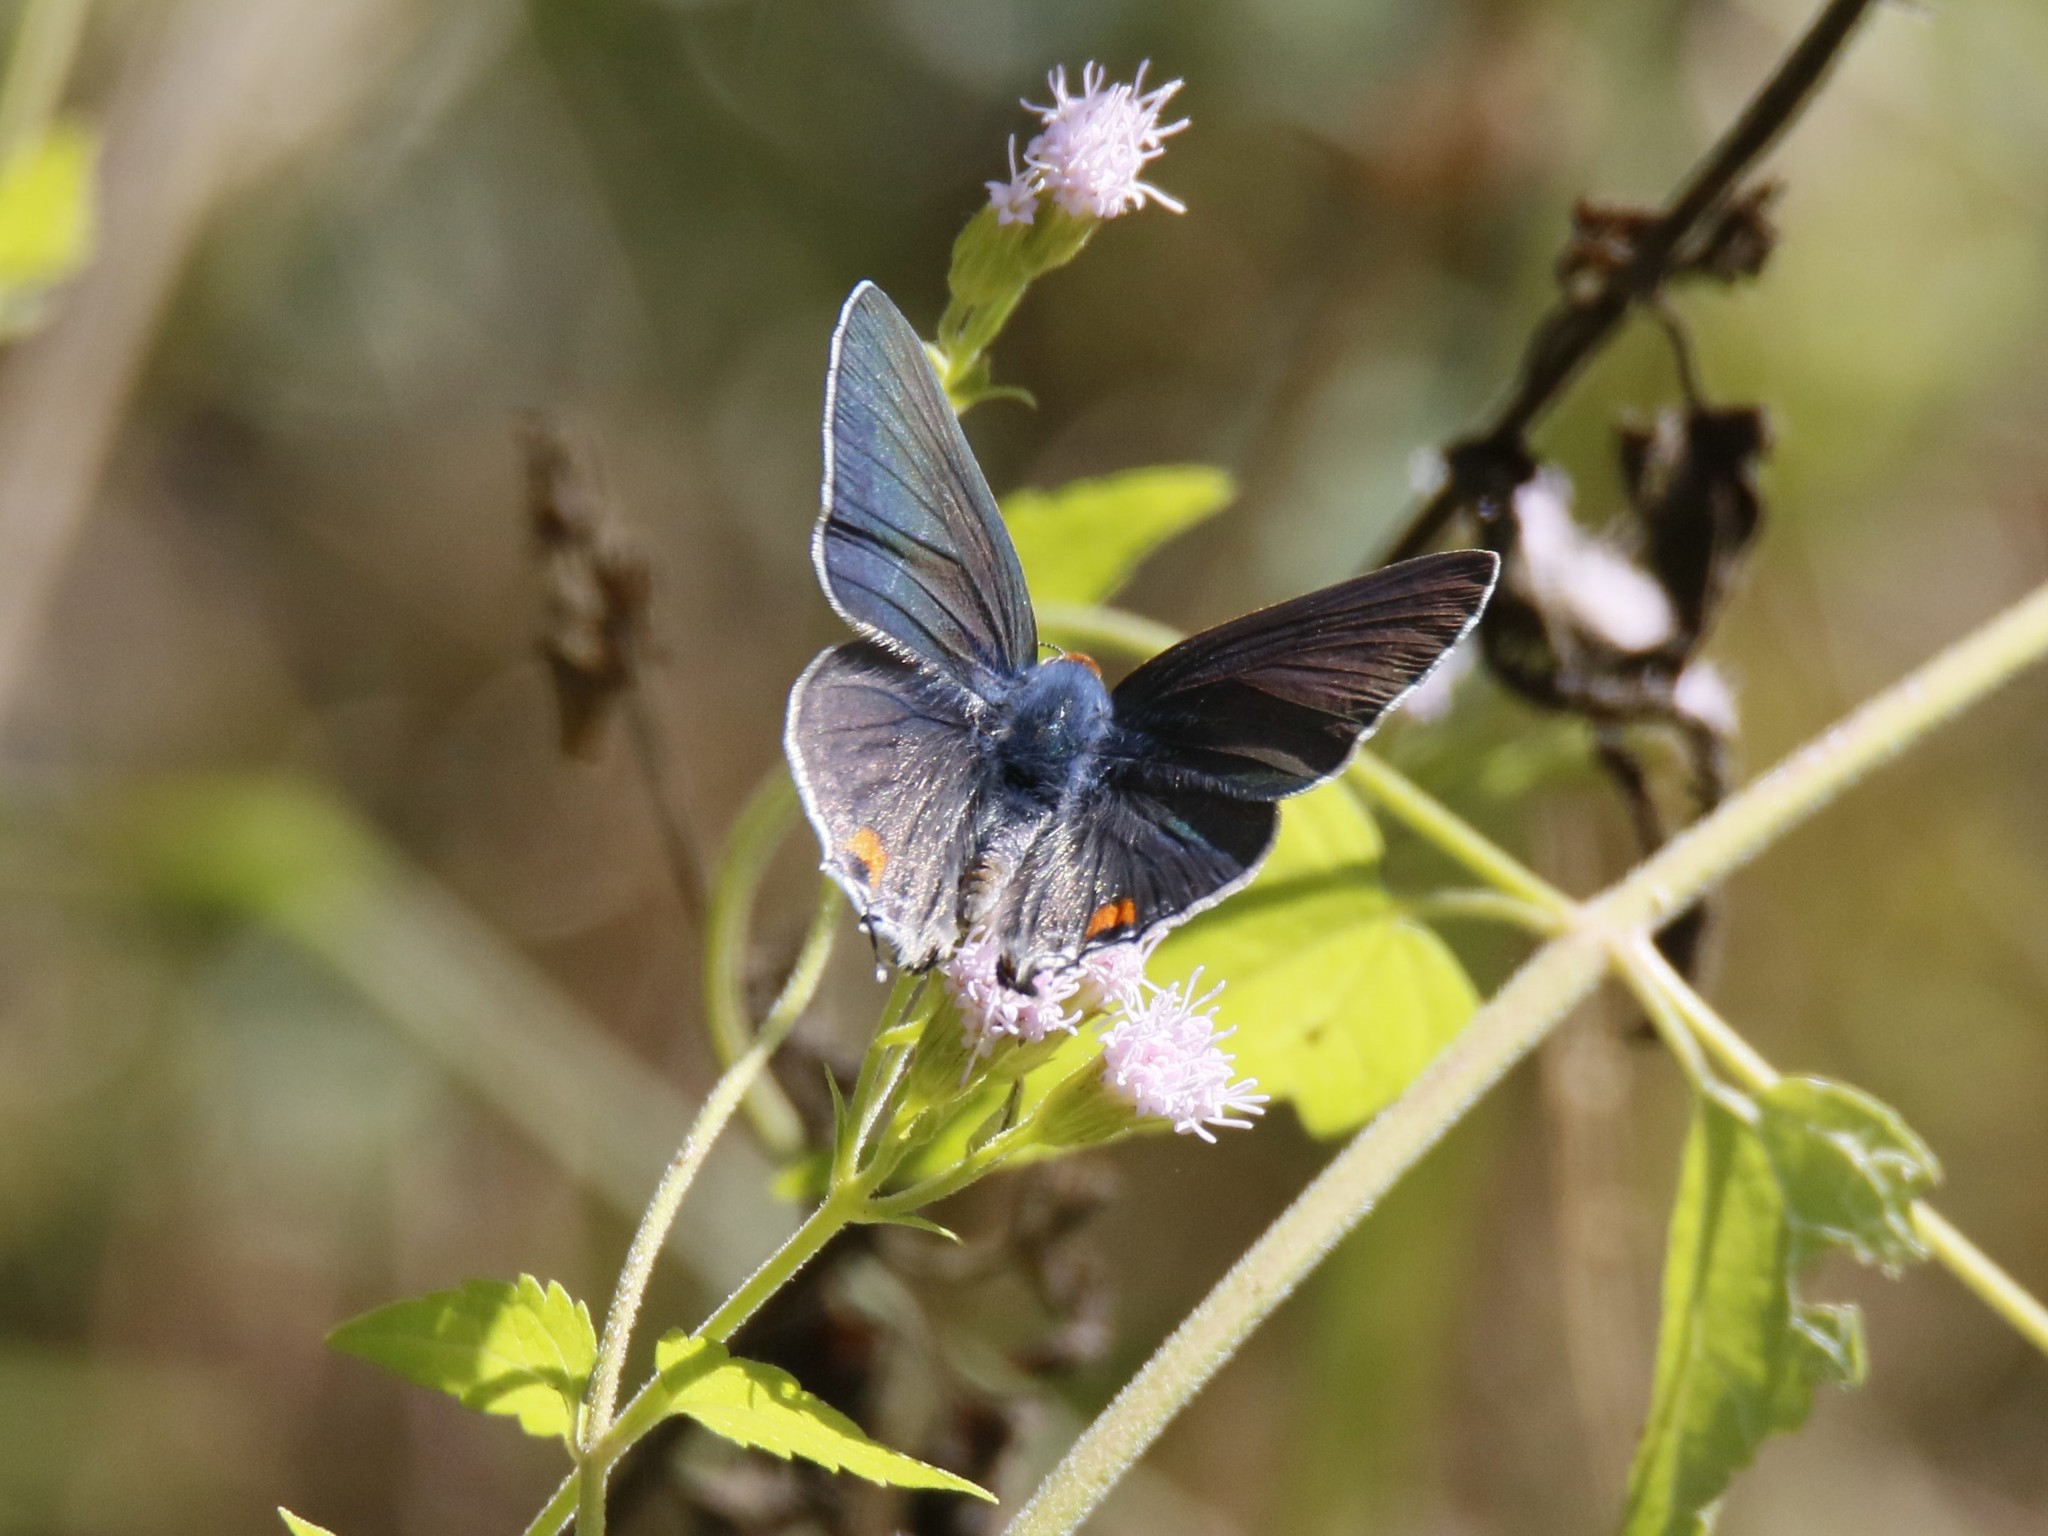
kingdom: Animalia
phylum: Arthropoda
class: Insecta
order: Lepidoptera
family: Lycaenidae
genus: Strymon
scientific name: Strymon melinus
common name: Gray hairstreak
